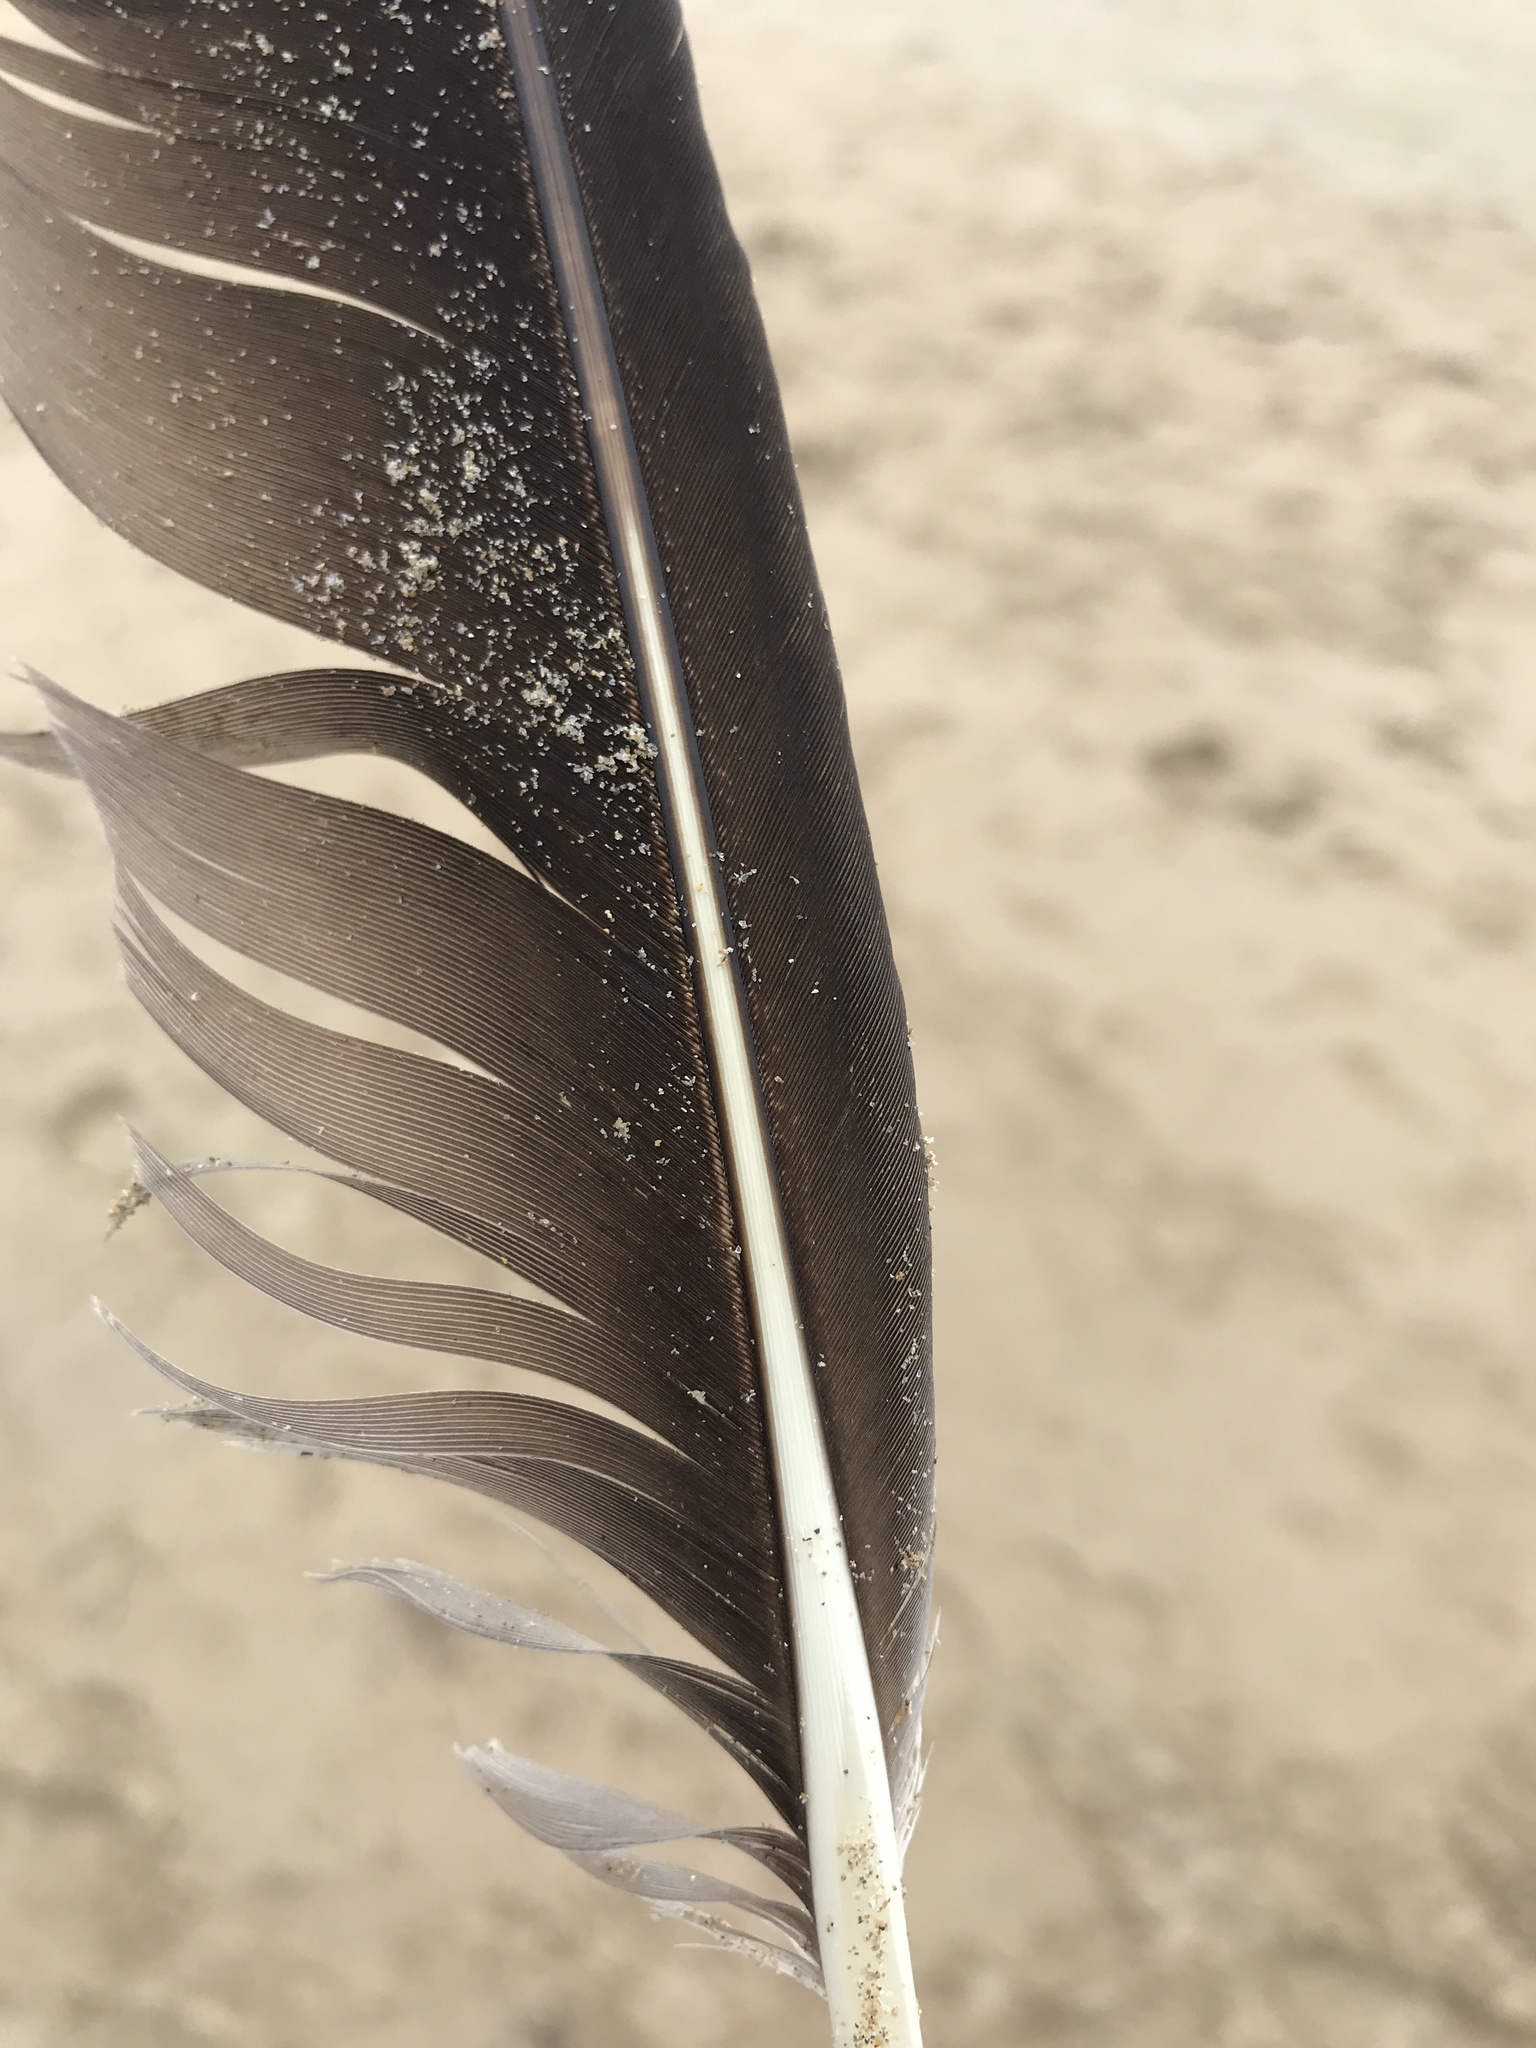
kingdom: Animalia
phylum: Chordata
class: Aves
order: Pelecaniformes
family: Pelecanidae
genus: Pelecanus
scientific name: Pelecanus occidentalis
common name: Brown pelican
